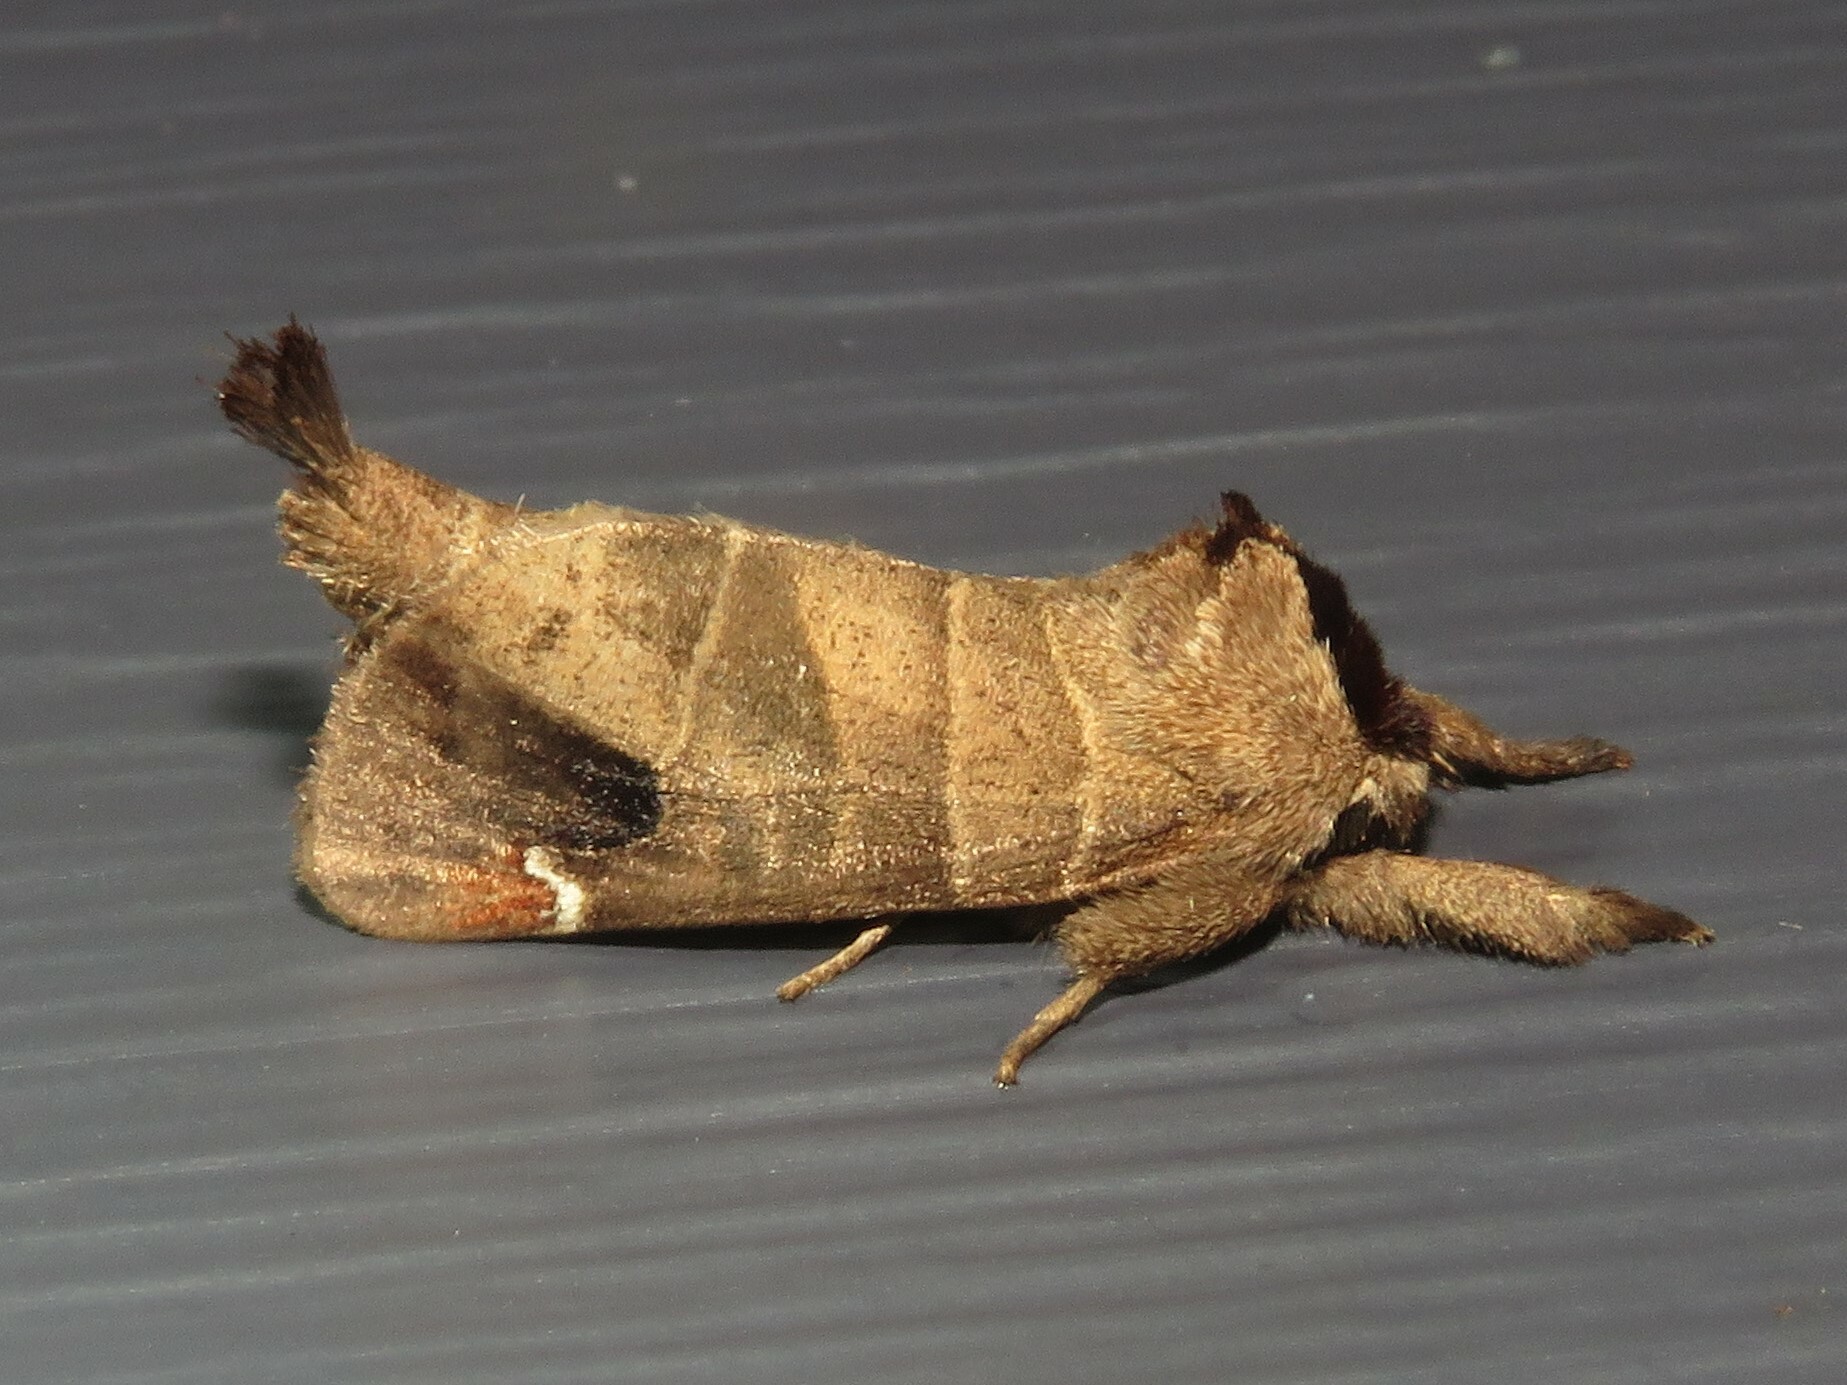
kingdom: Animalia
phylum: Arthropoda
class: Insecta
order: Lepidoptera
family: Notodontidae
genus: Clostera
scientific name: Clostera albosigma
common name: Sigmoid prominent
